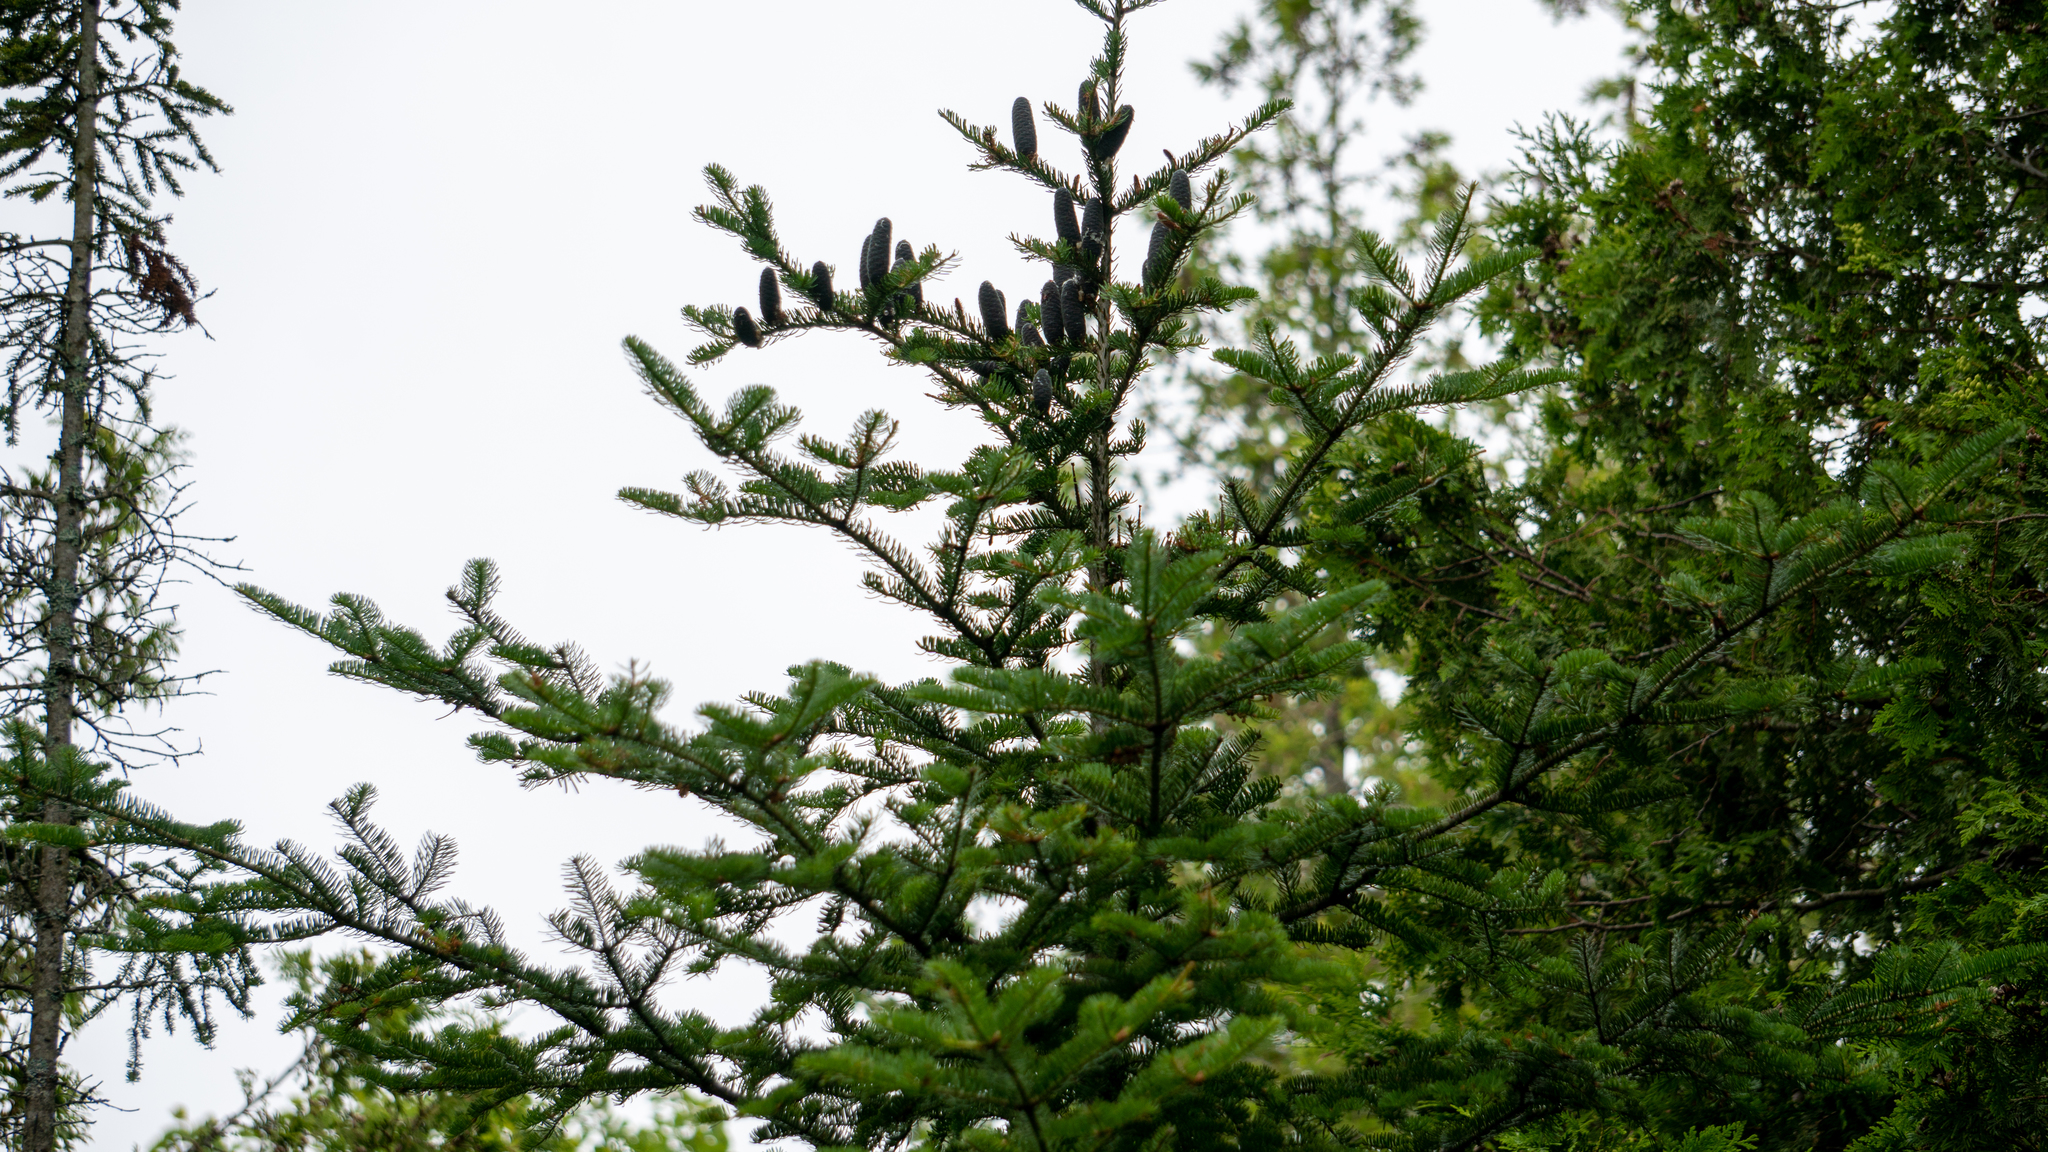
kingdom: Plantae
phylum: Tracheophyta
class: Pinopsida
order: Pinales
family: Pinaceae
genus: Abies
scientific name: Abies balsamea
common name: Balsam fir
